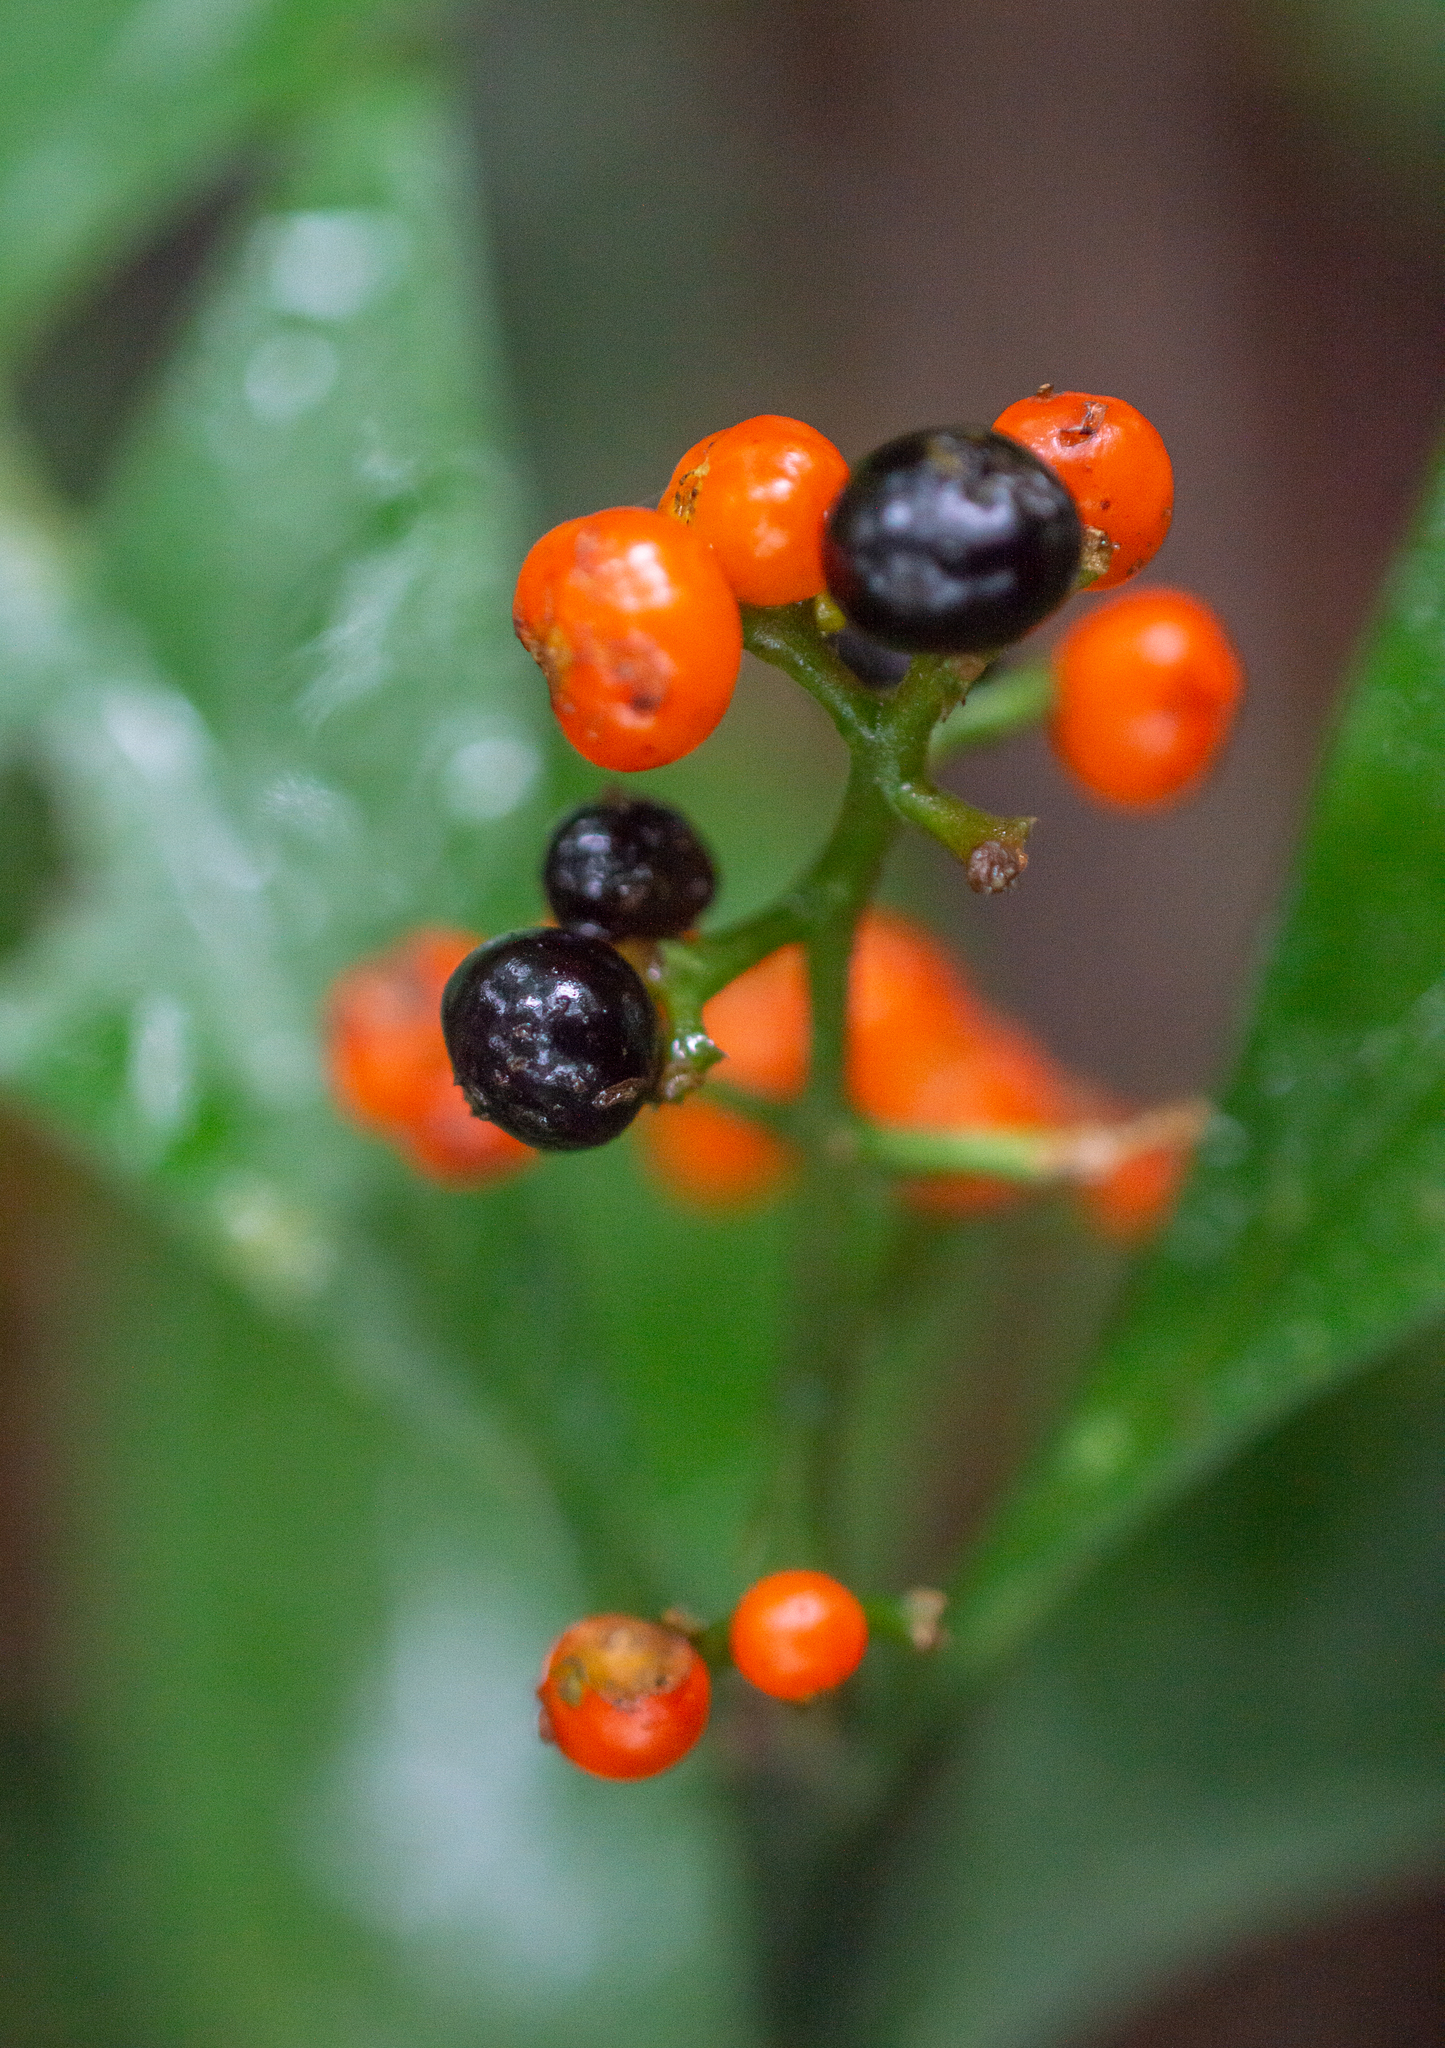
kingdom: Plantae
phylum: Tracheophyta
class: Magnoliopsida
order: Gentianales
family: Rubiaceae
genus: Palicourea
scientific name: Palicourea racemosa
